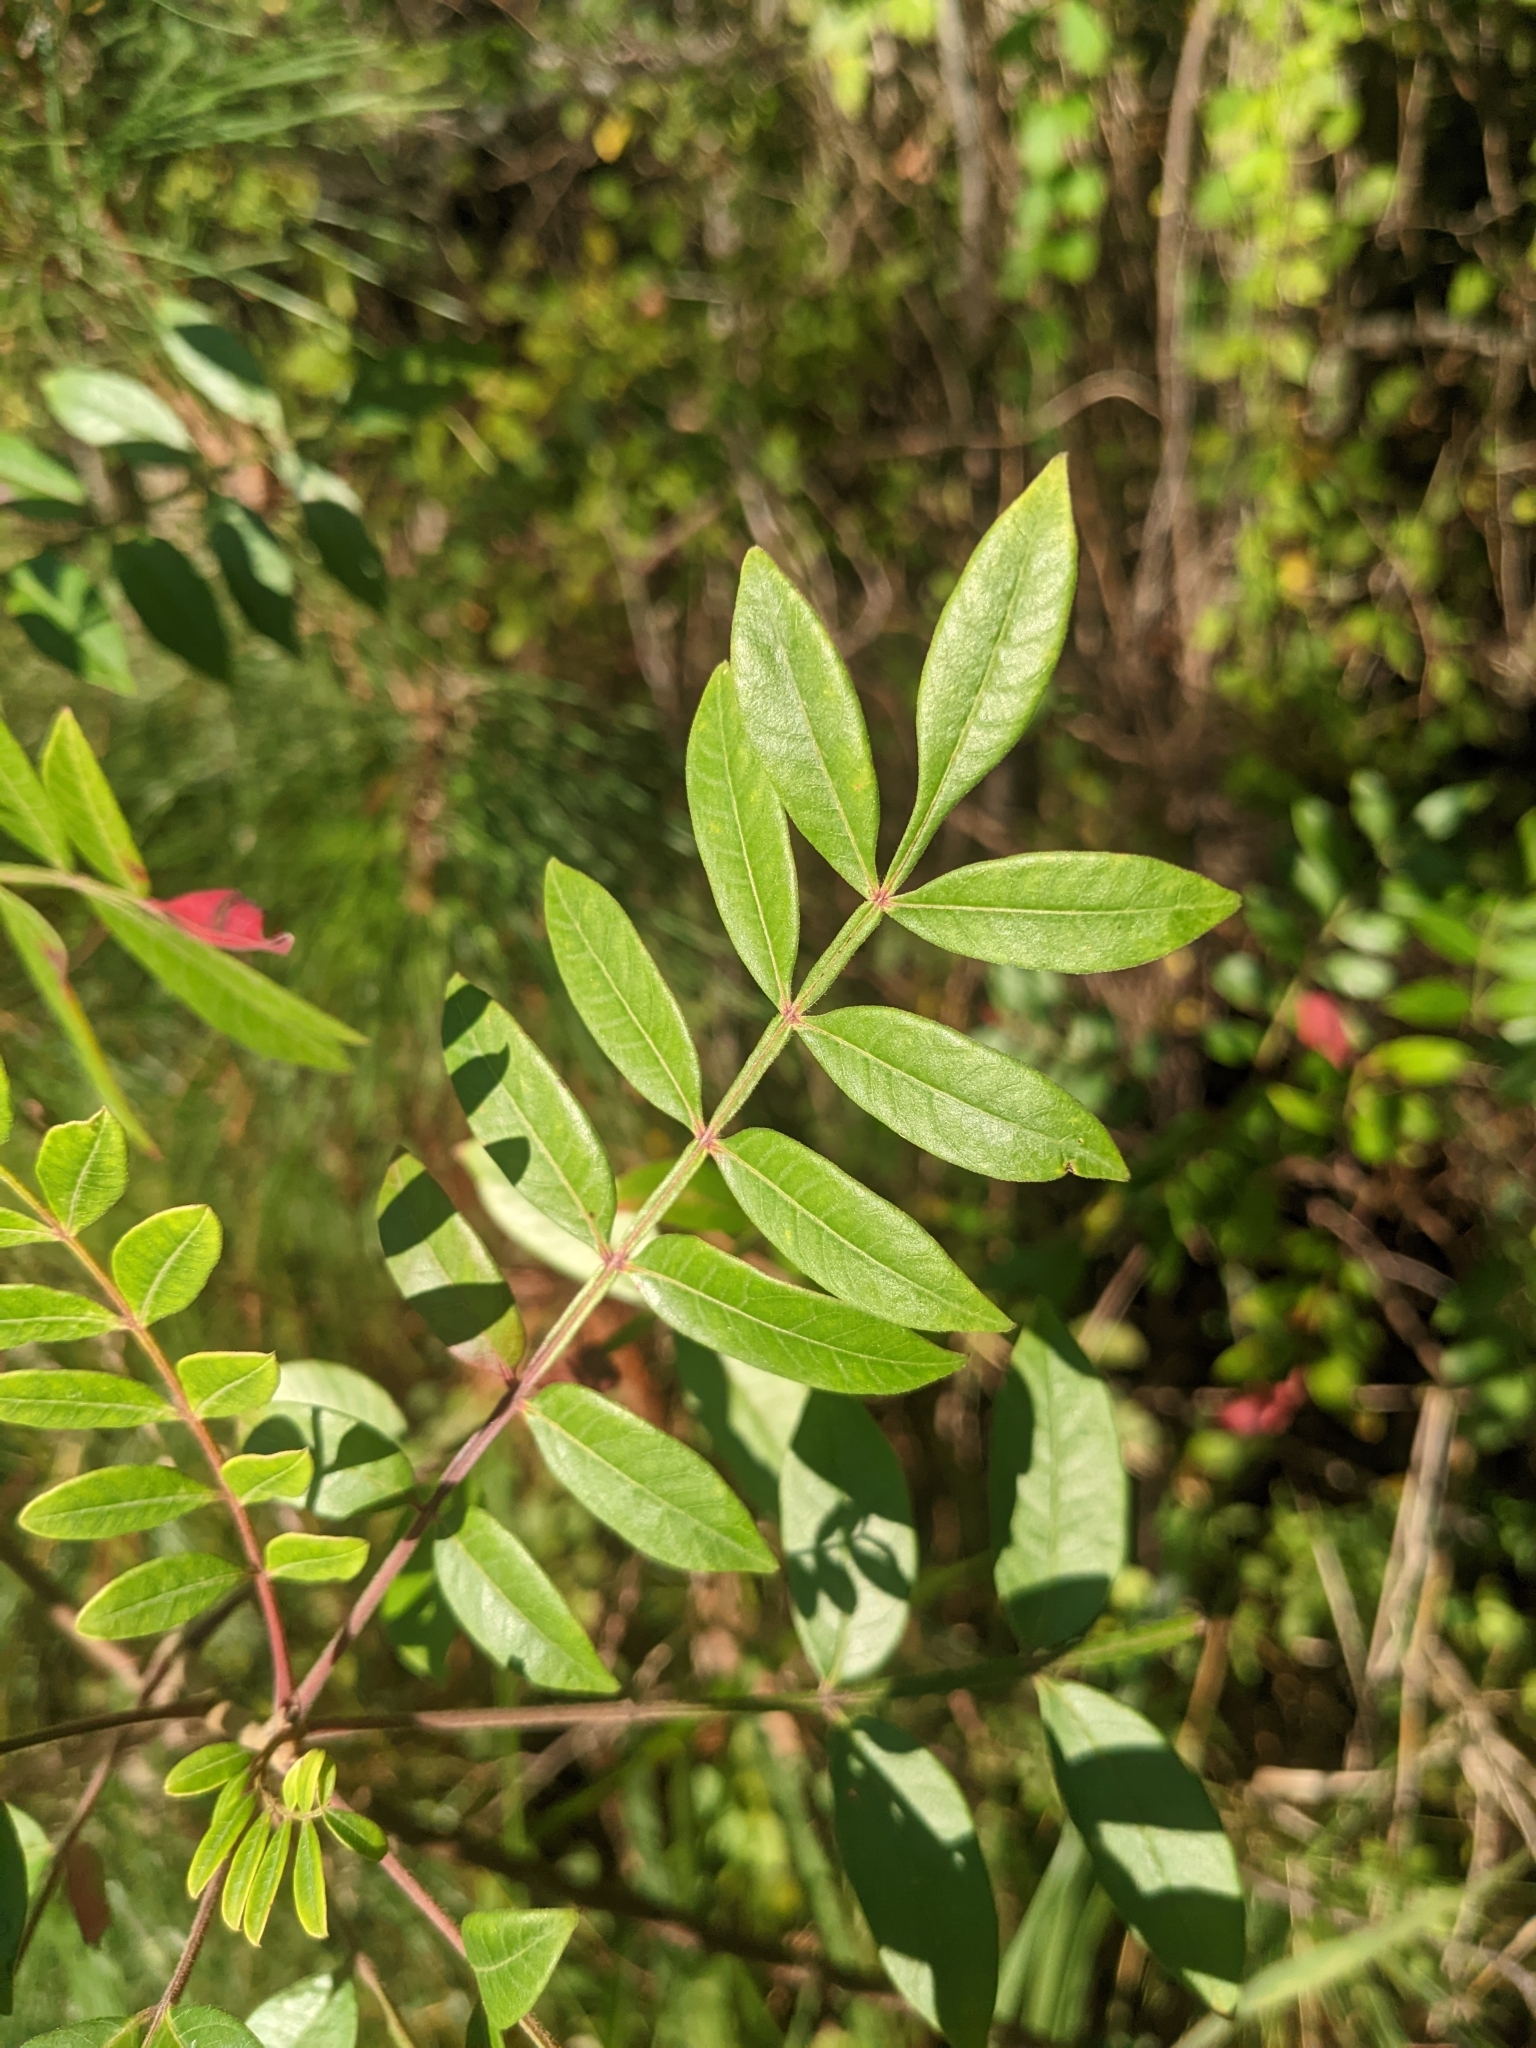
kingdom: Plantae
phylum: Tracheophyta
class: Magnoliopsida
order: Sapindales
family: Anacardiaceae
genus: Rhus
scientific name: Rhus copallina
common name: Shining sumac
